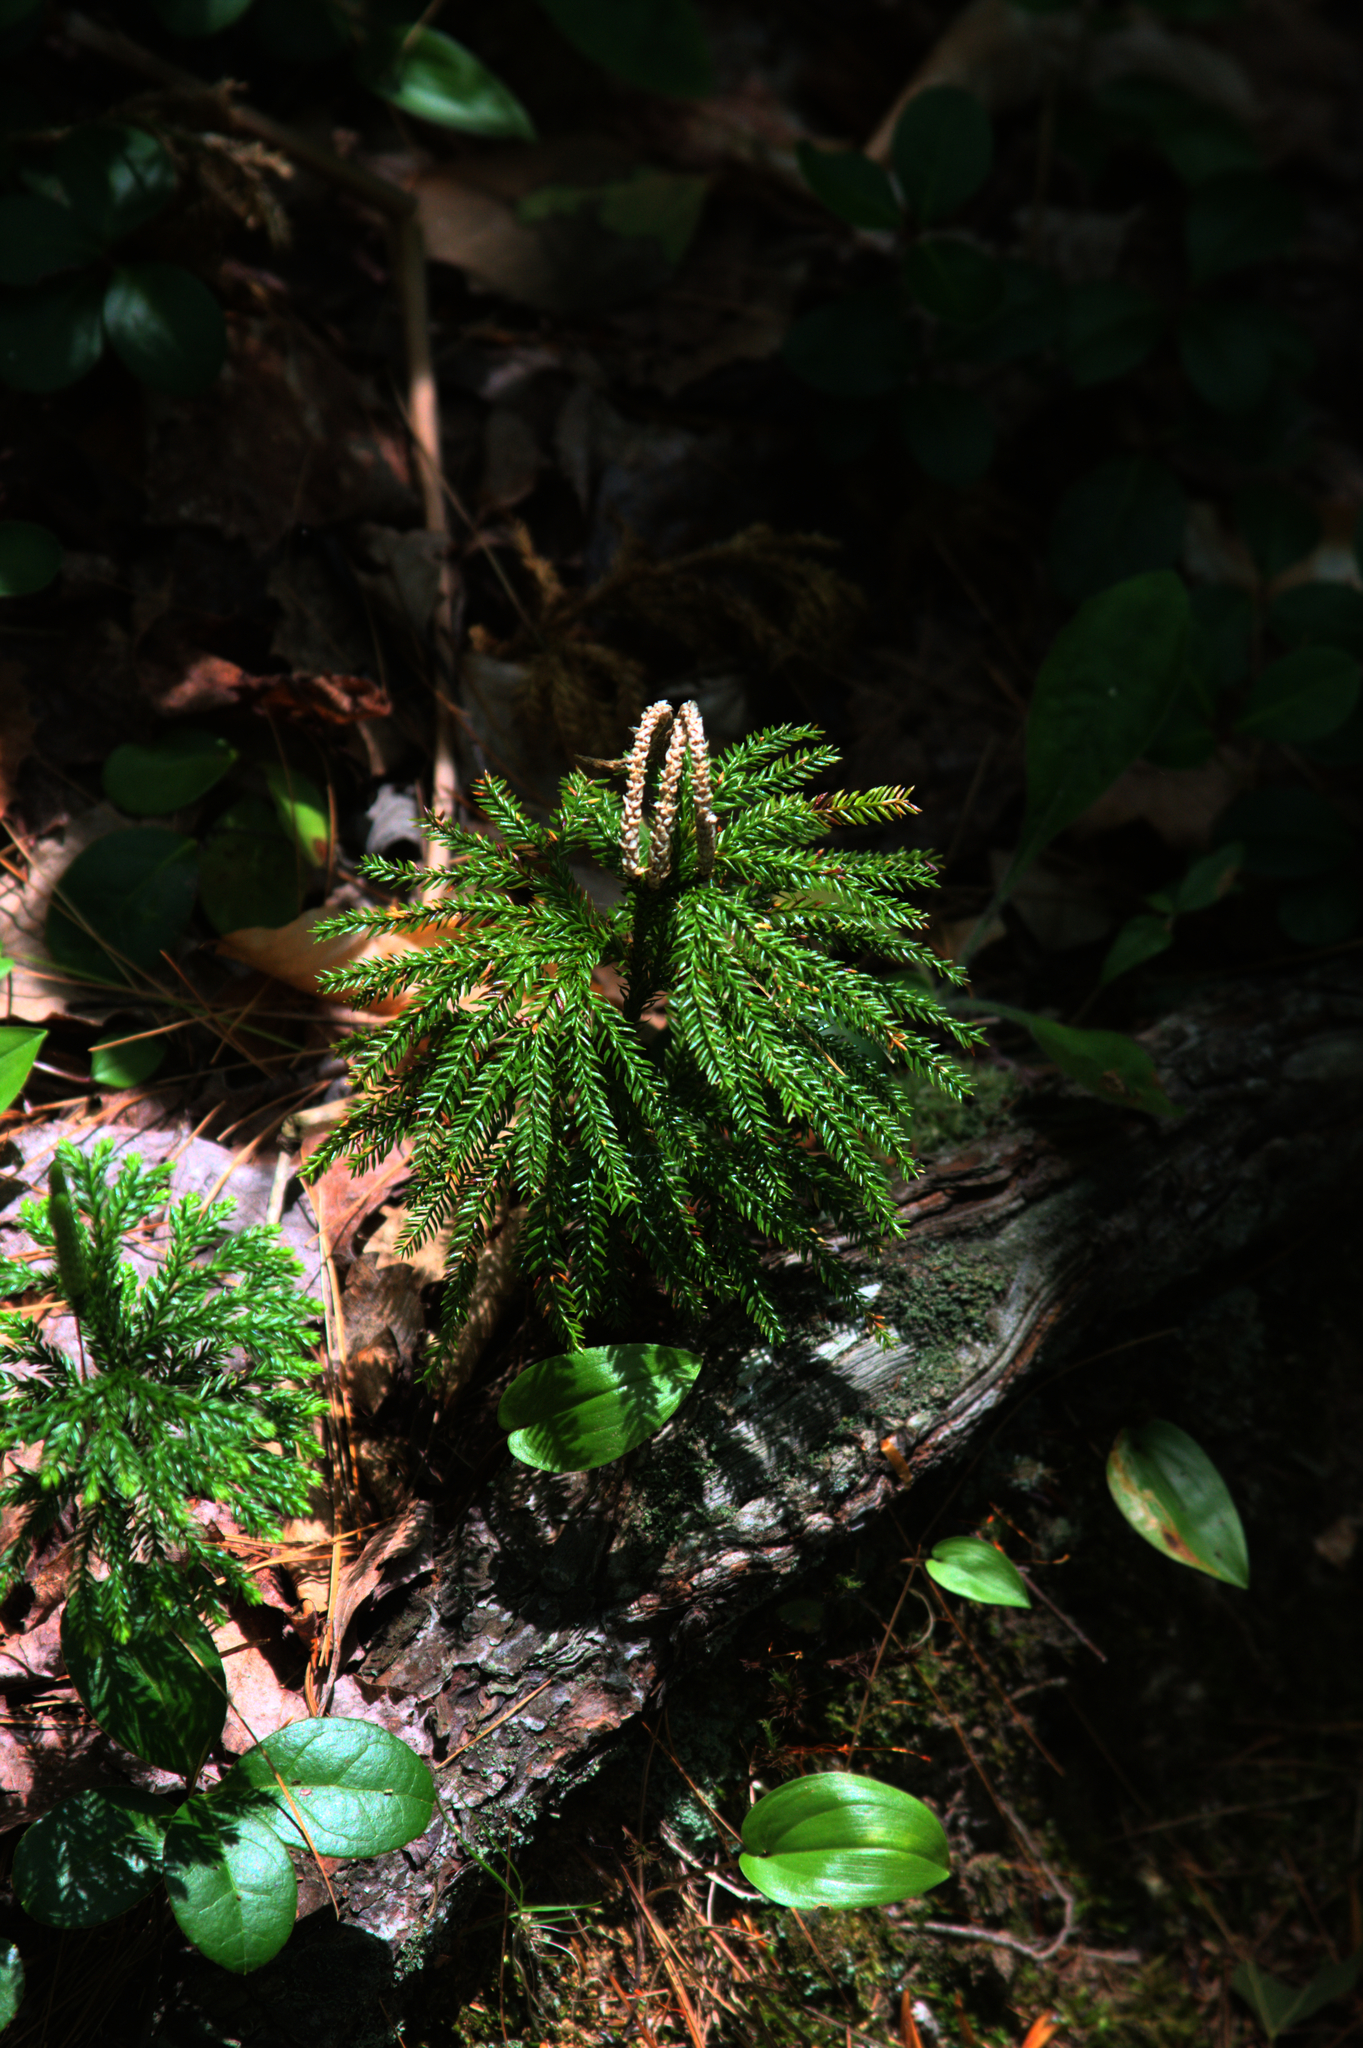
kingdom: Plantae
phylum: Tracheophyta
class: Liliopsida
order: Asparagales
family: Asparagaceae
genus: Maianthemum
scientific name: Maianthemum canadense
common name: False lily-of-the-valley
